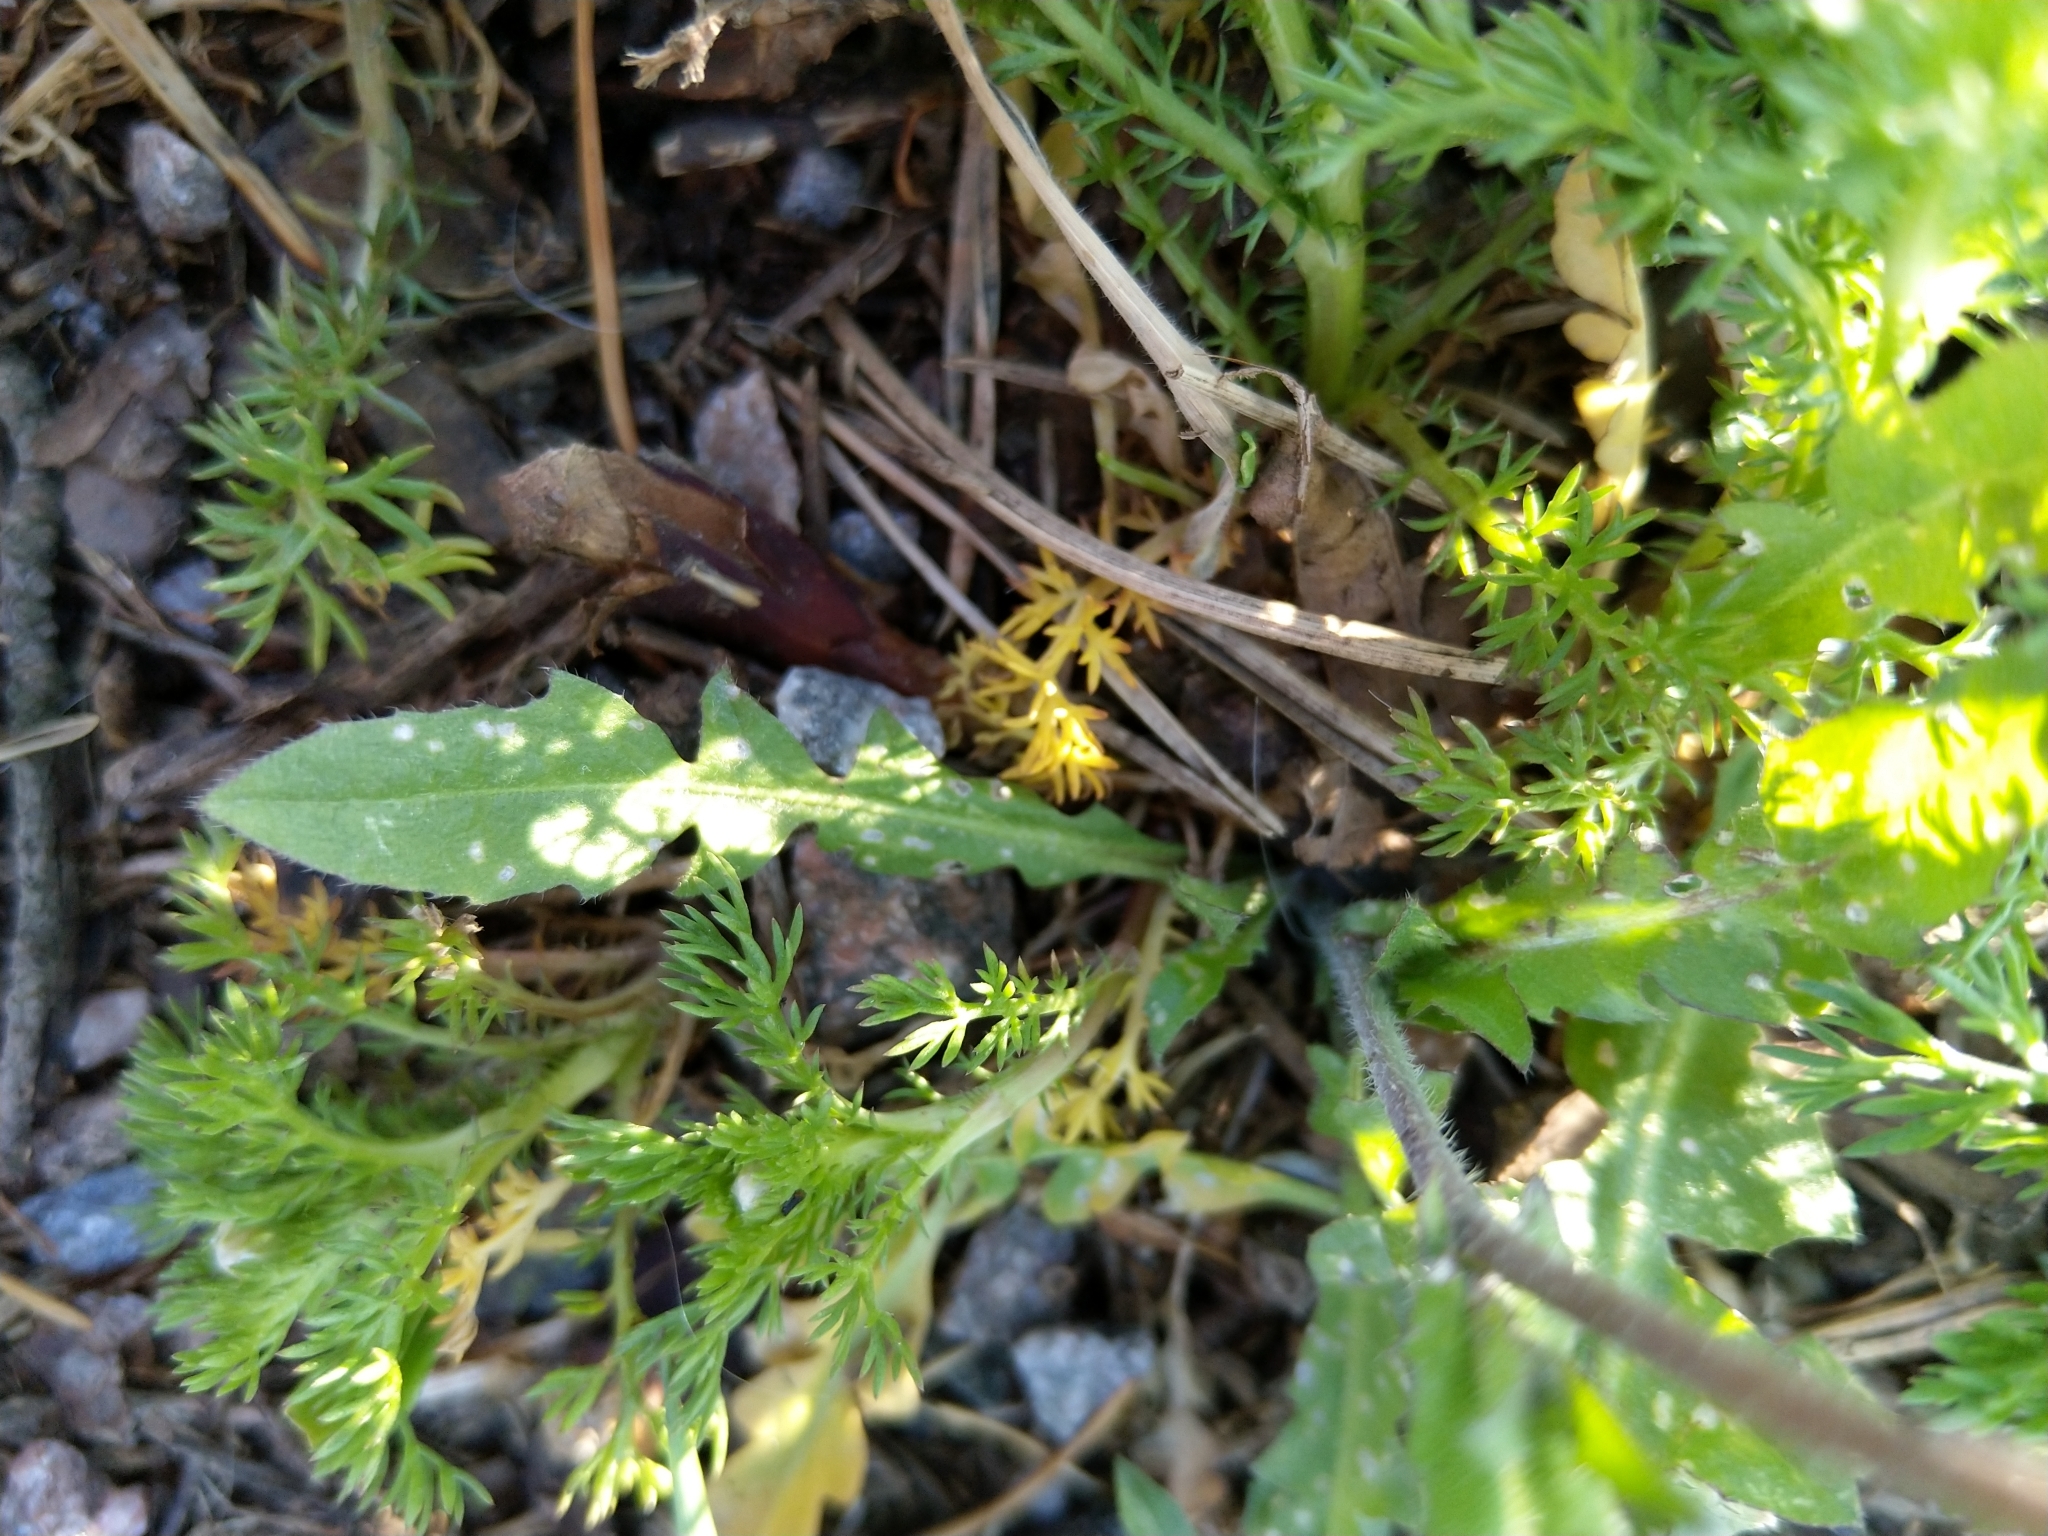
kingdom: Plantae
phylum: Tracheophyta
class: Magnoliopsida
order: Brassicales
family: Brassicaceae
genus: Capsella
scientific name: Capsella bursa-pastoris
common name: Shepherd's purse
